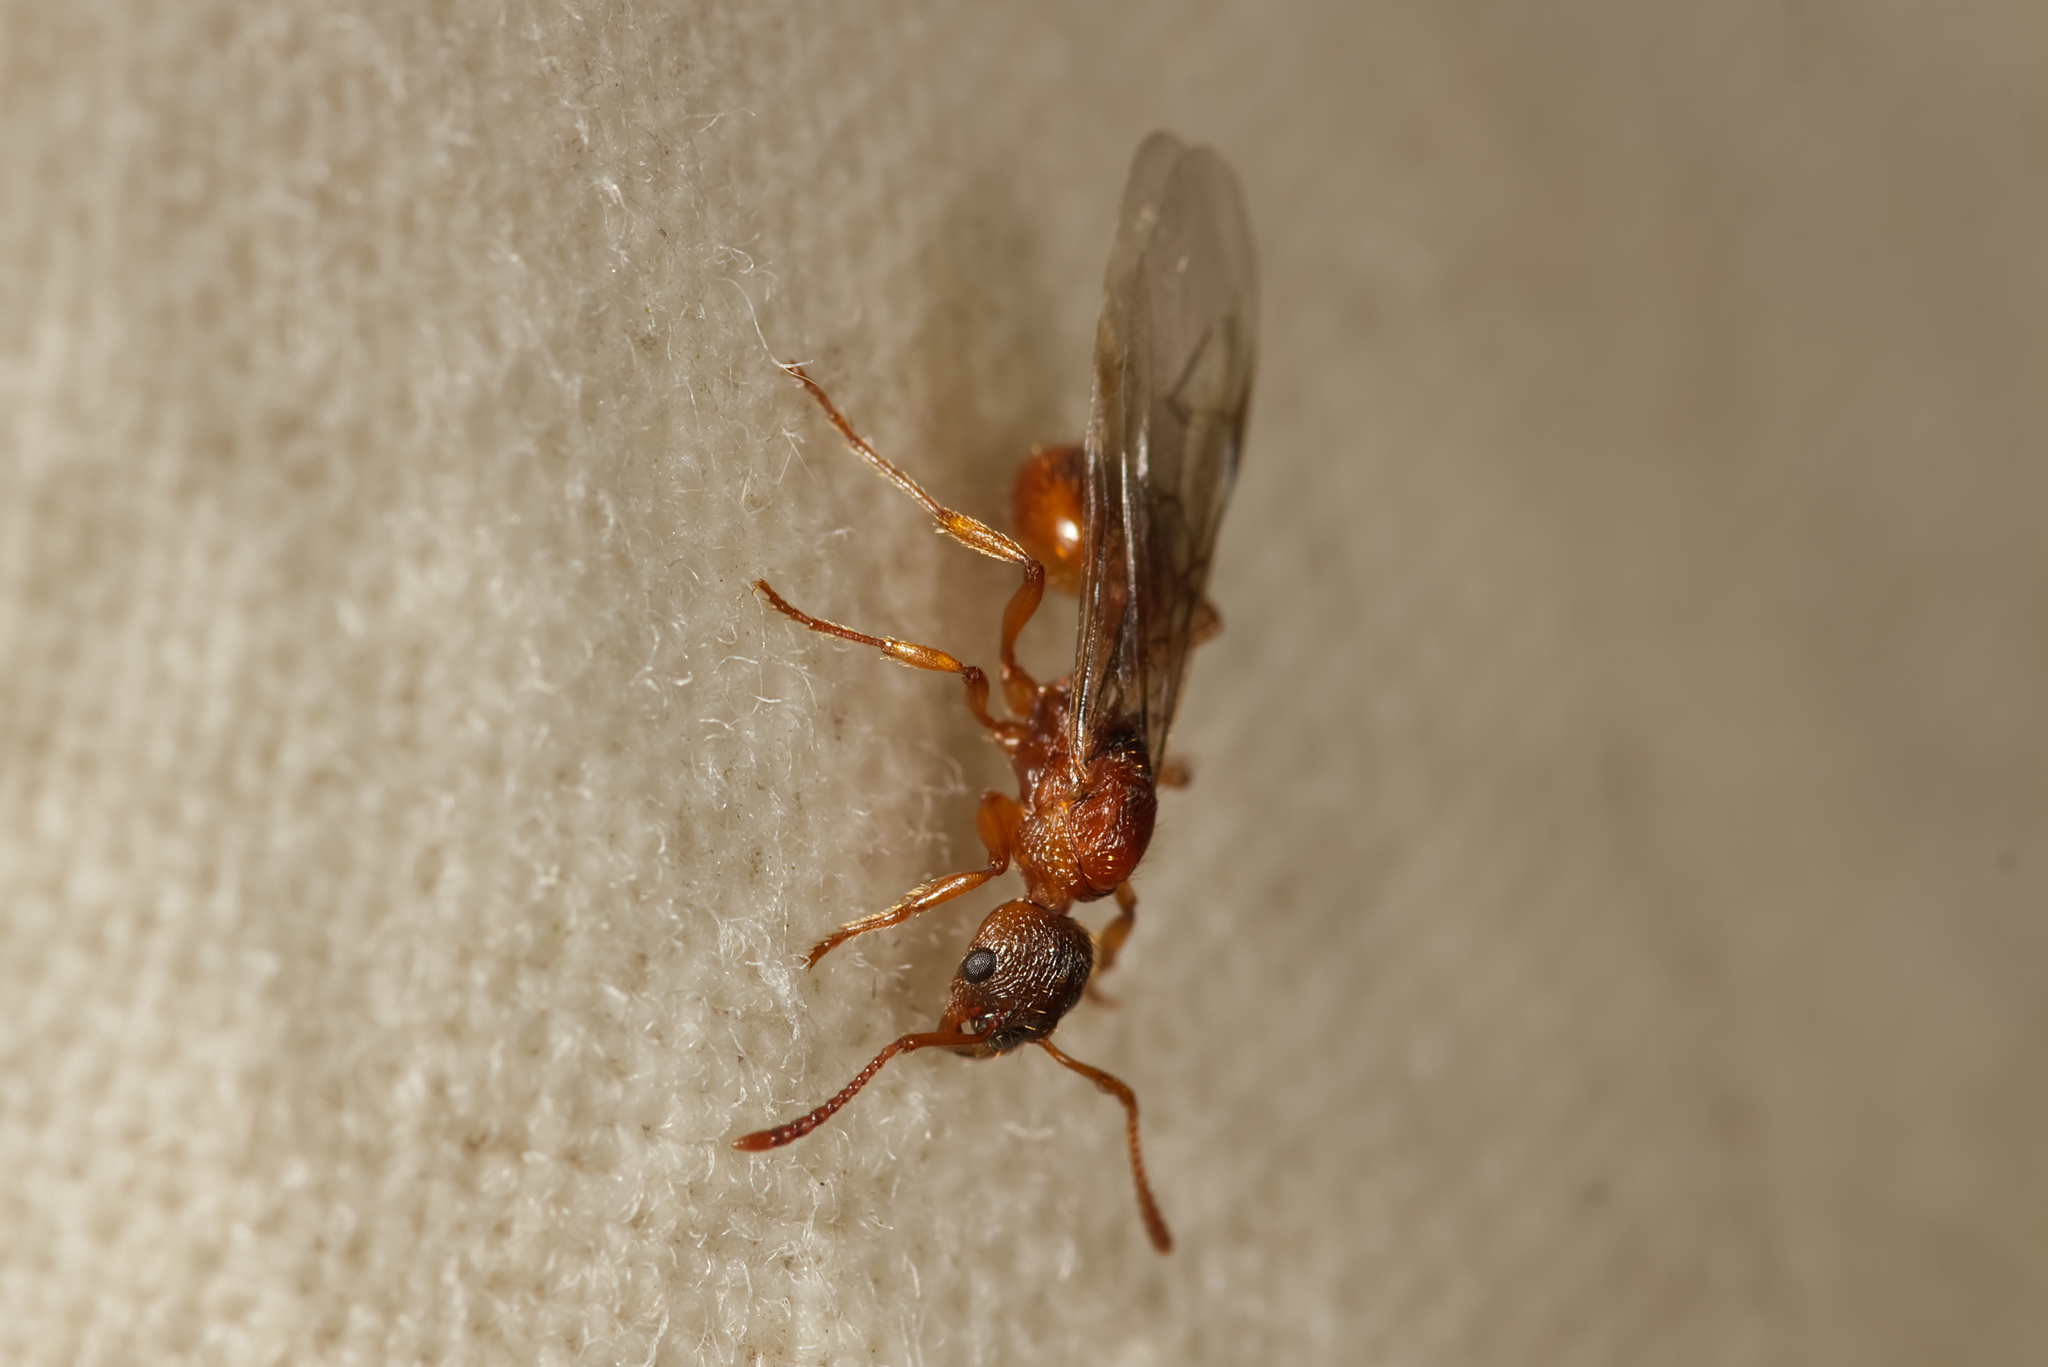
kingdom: Animalia
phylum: Arthropoda
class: Insecta
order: Hymenoptera
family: Formicidae
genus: Myrmica
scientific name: Myrmica
